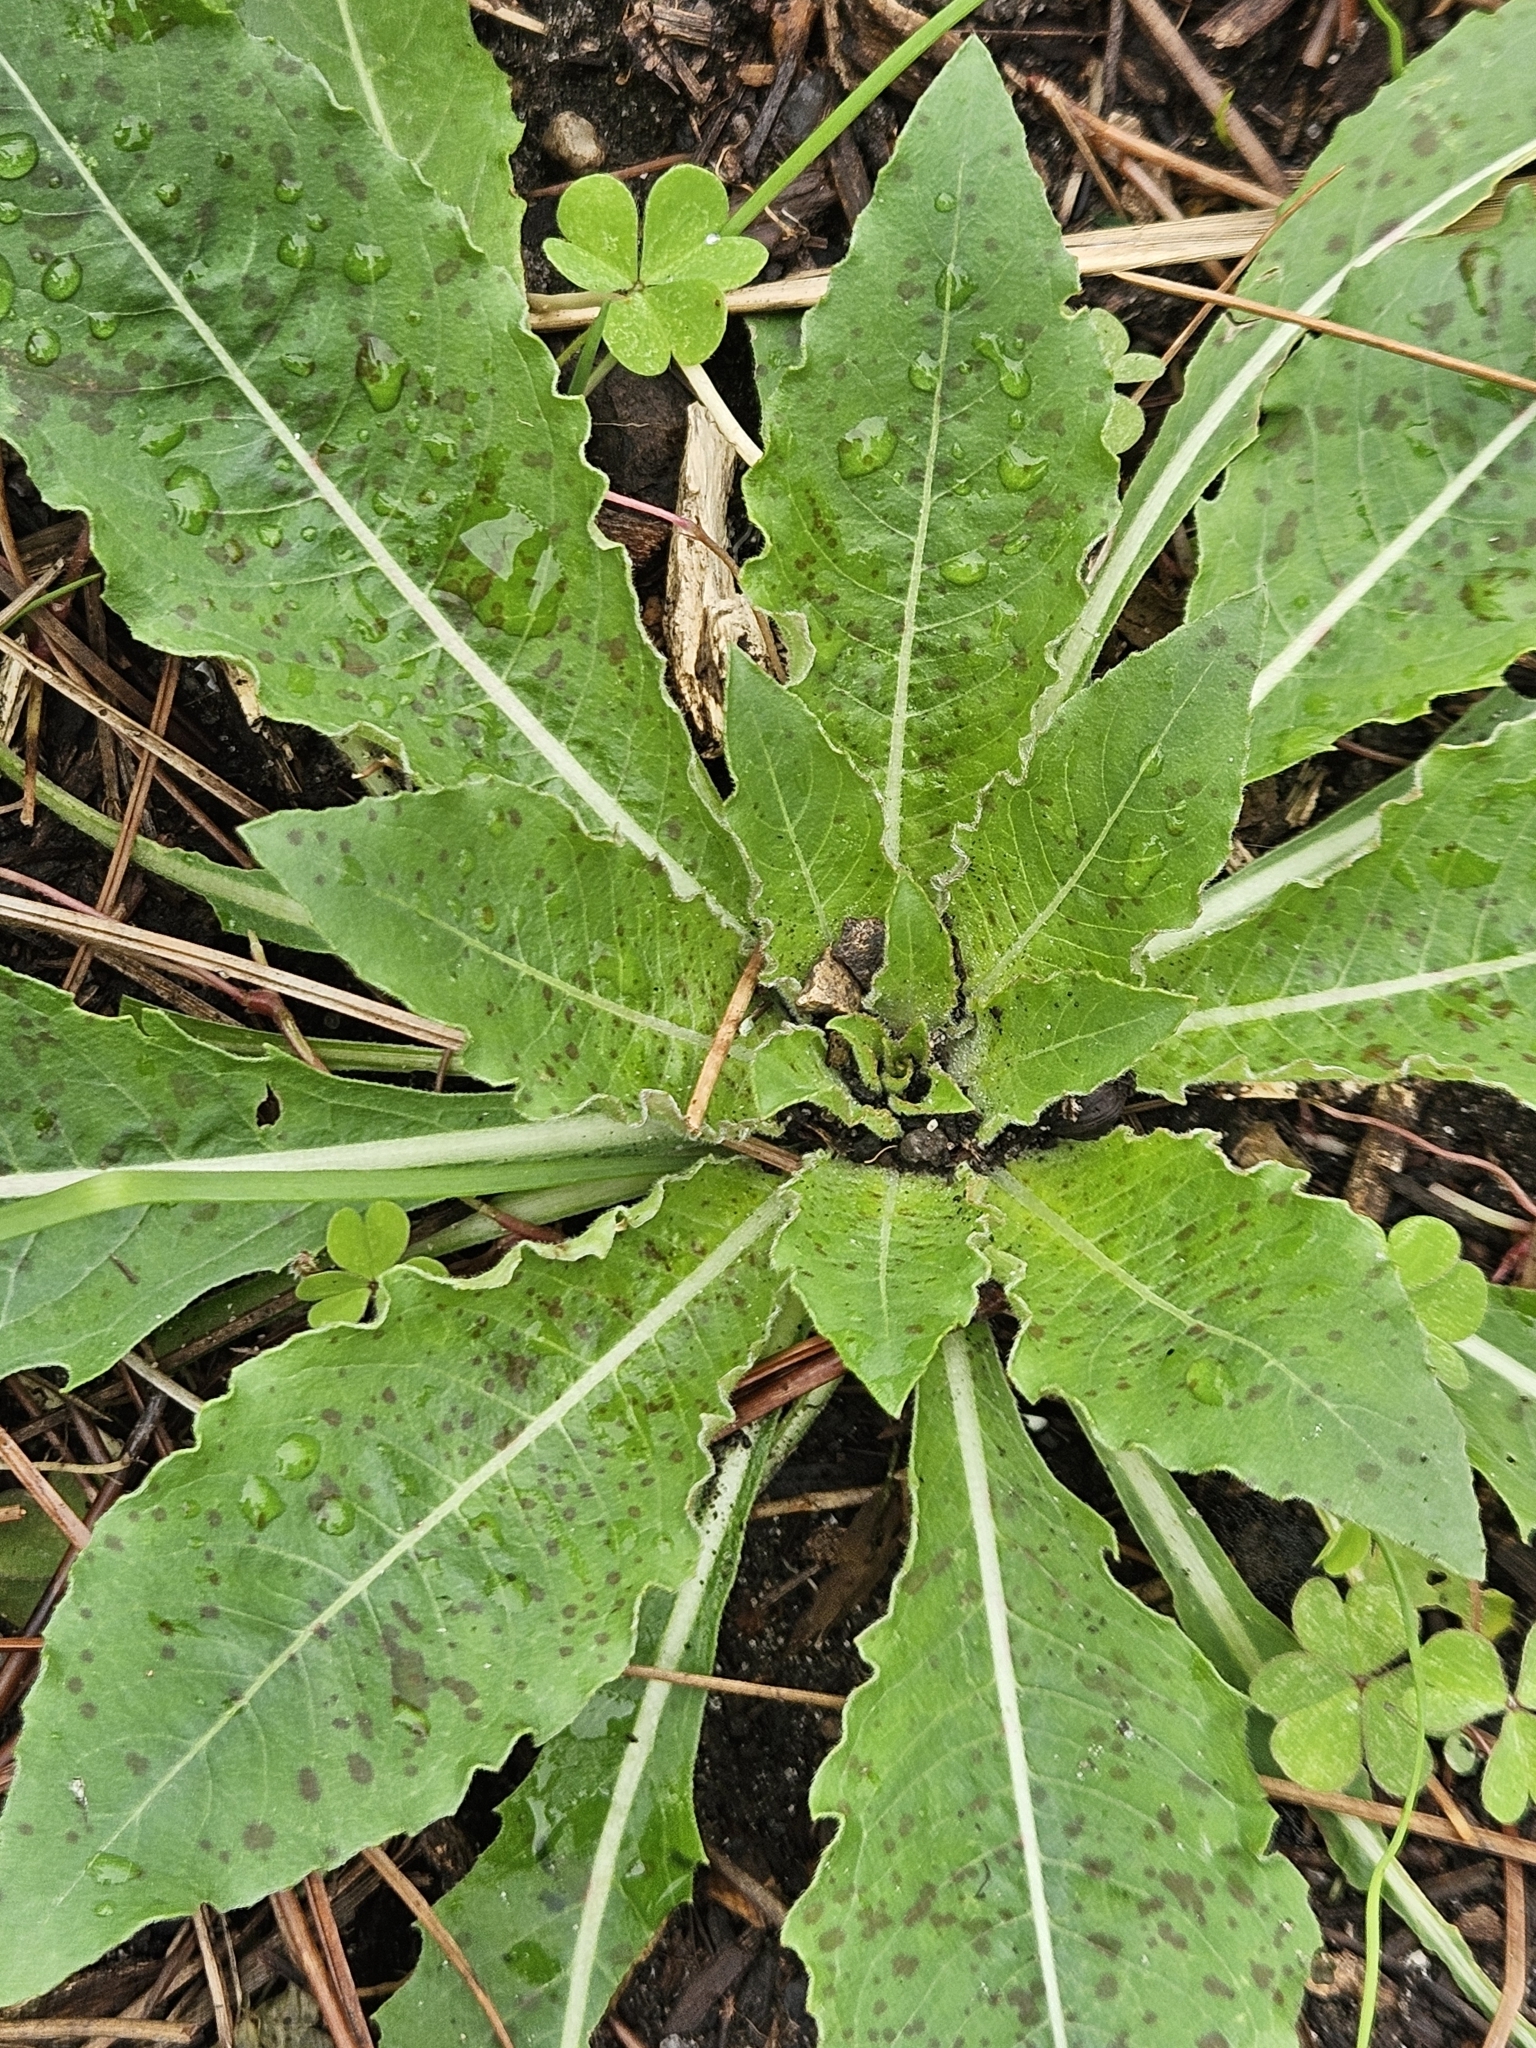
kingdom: Plantae
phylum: Tracheophyta
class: Magnoliopsida
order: Myrtales
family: Onagraceae
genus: Oenothera
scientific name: Oenothera biennis
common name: Common evening-primrose
